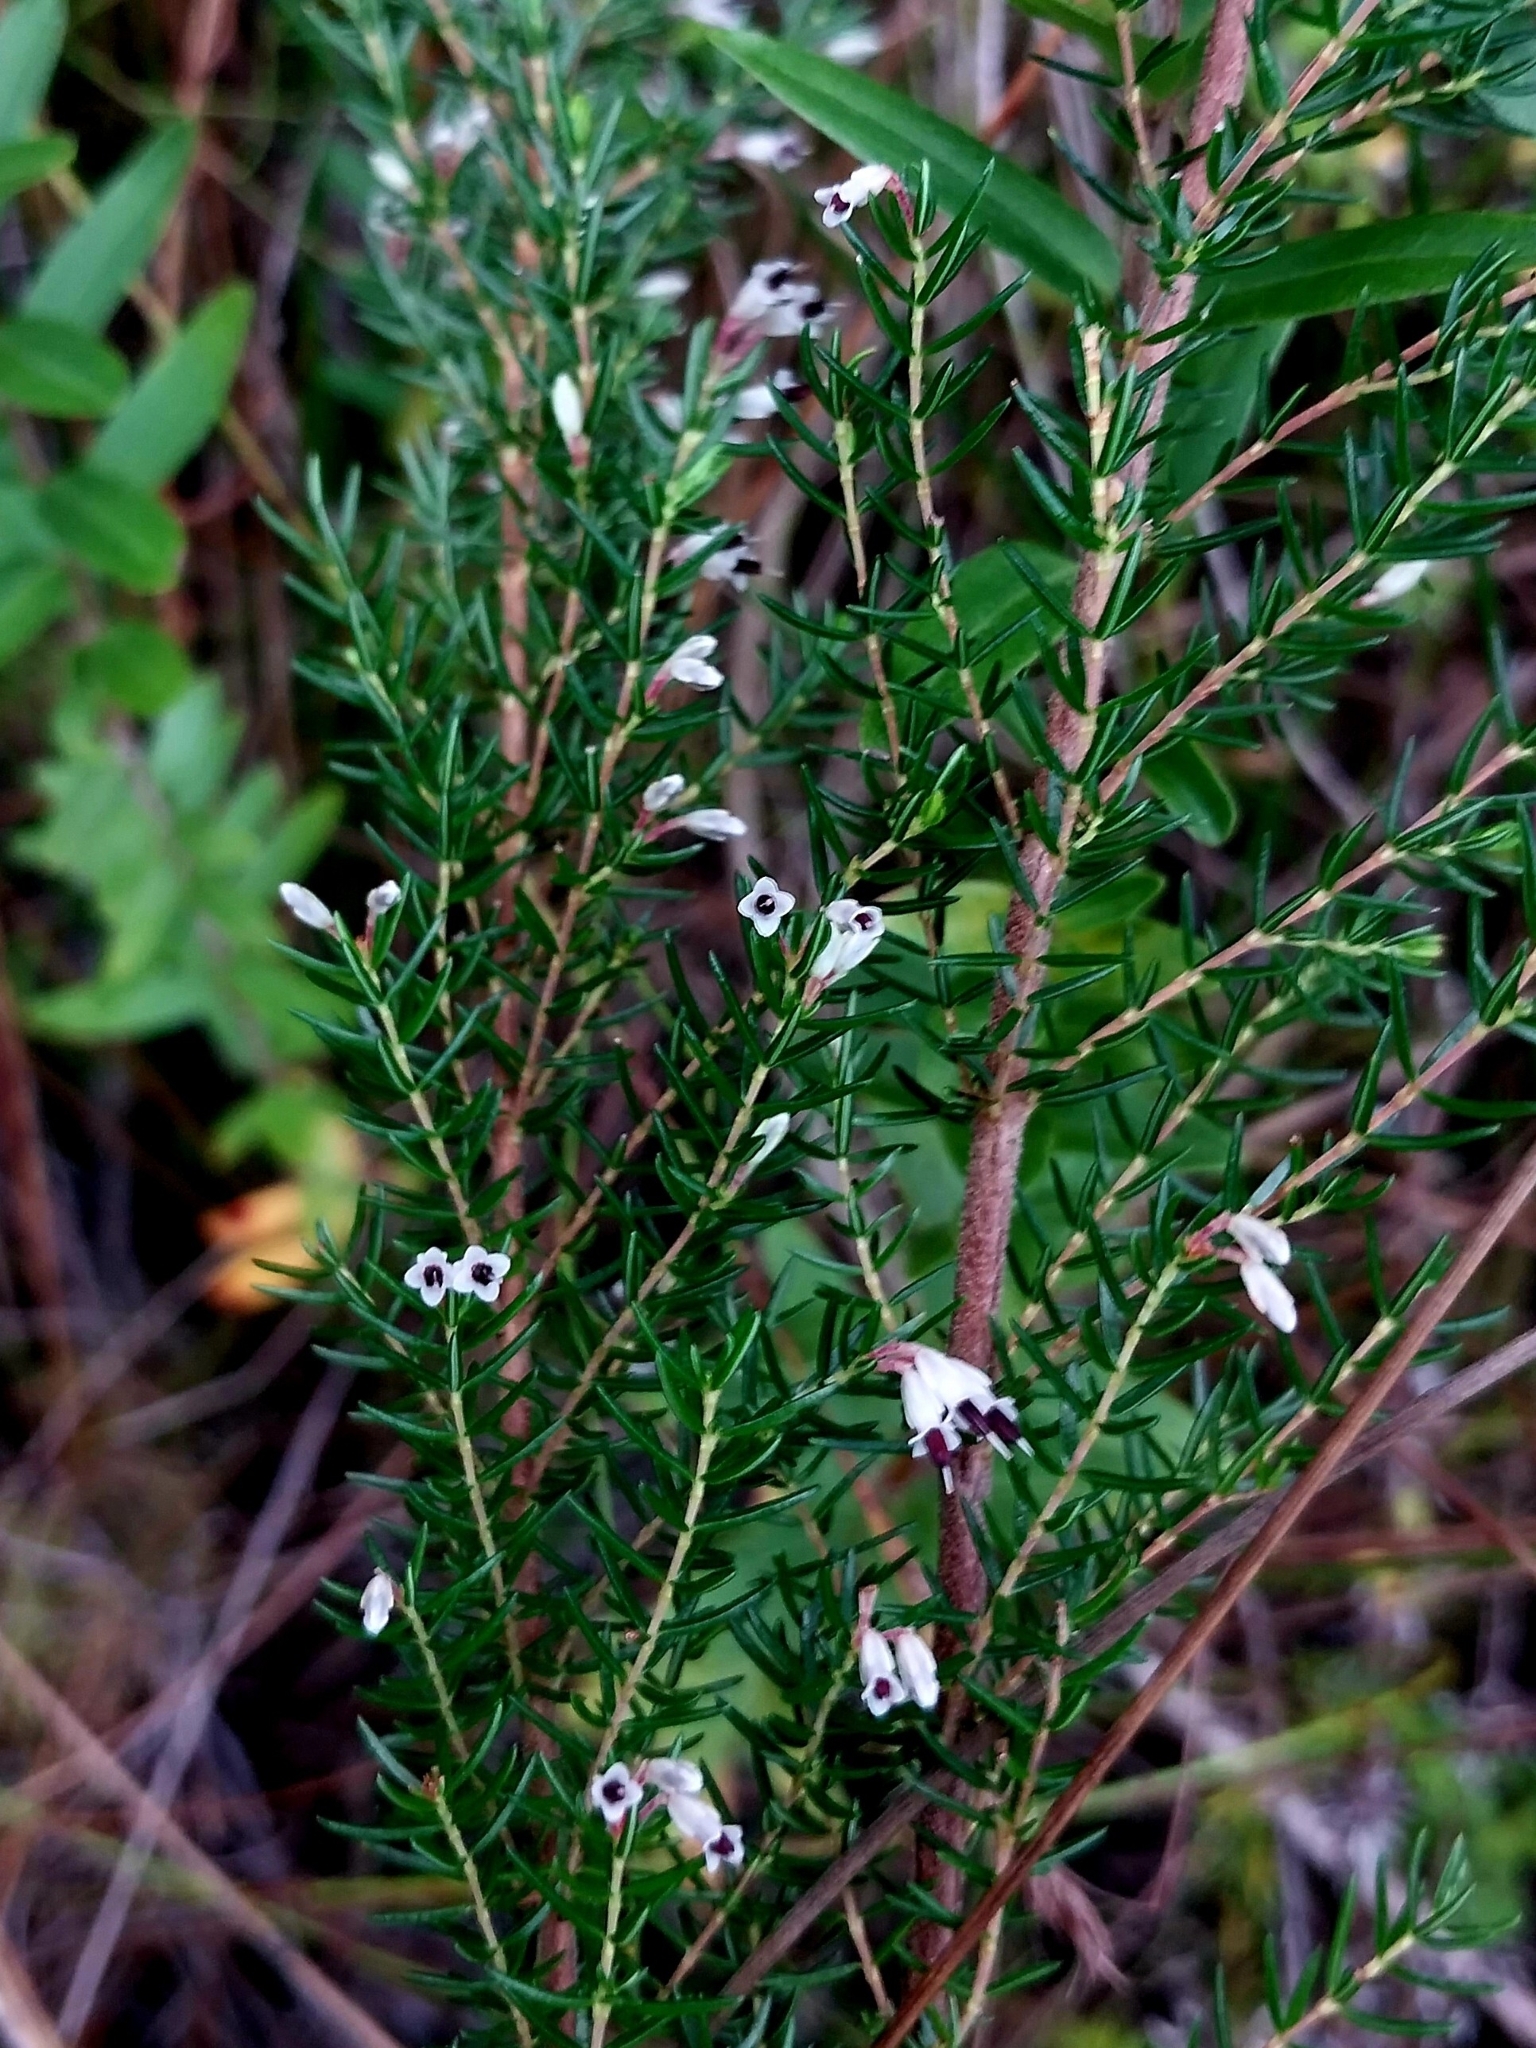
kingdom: Plantae
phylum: Tracheophyta
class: Magnoliopsida
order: Ericales
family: Ericaceae
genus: Erica
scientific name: Erica fuscescens
